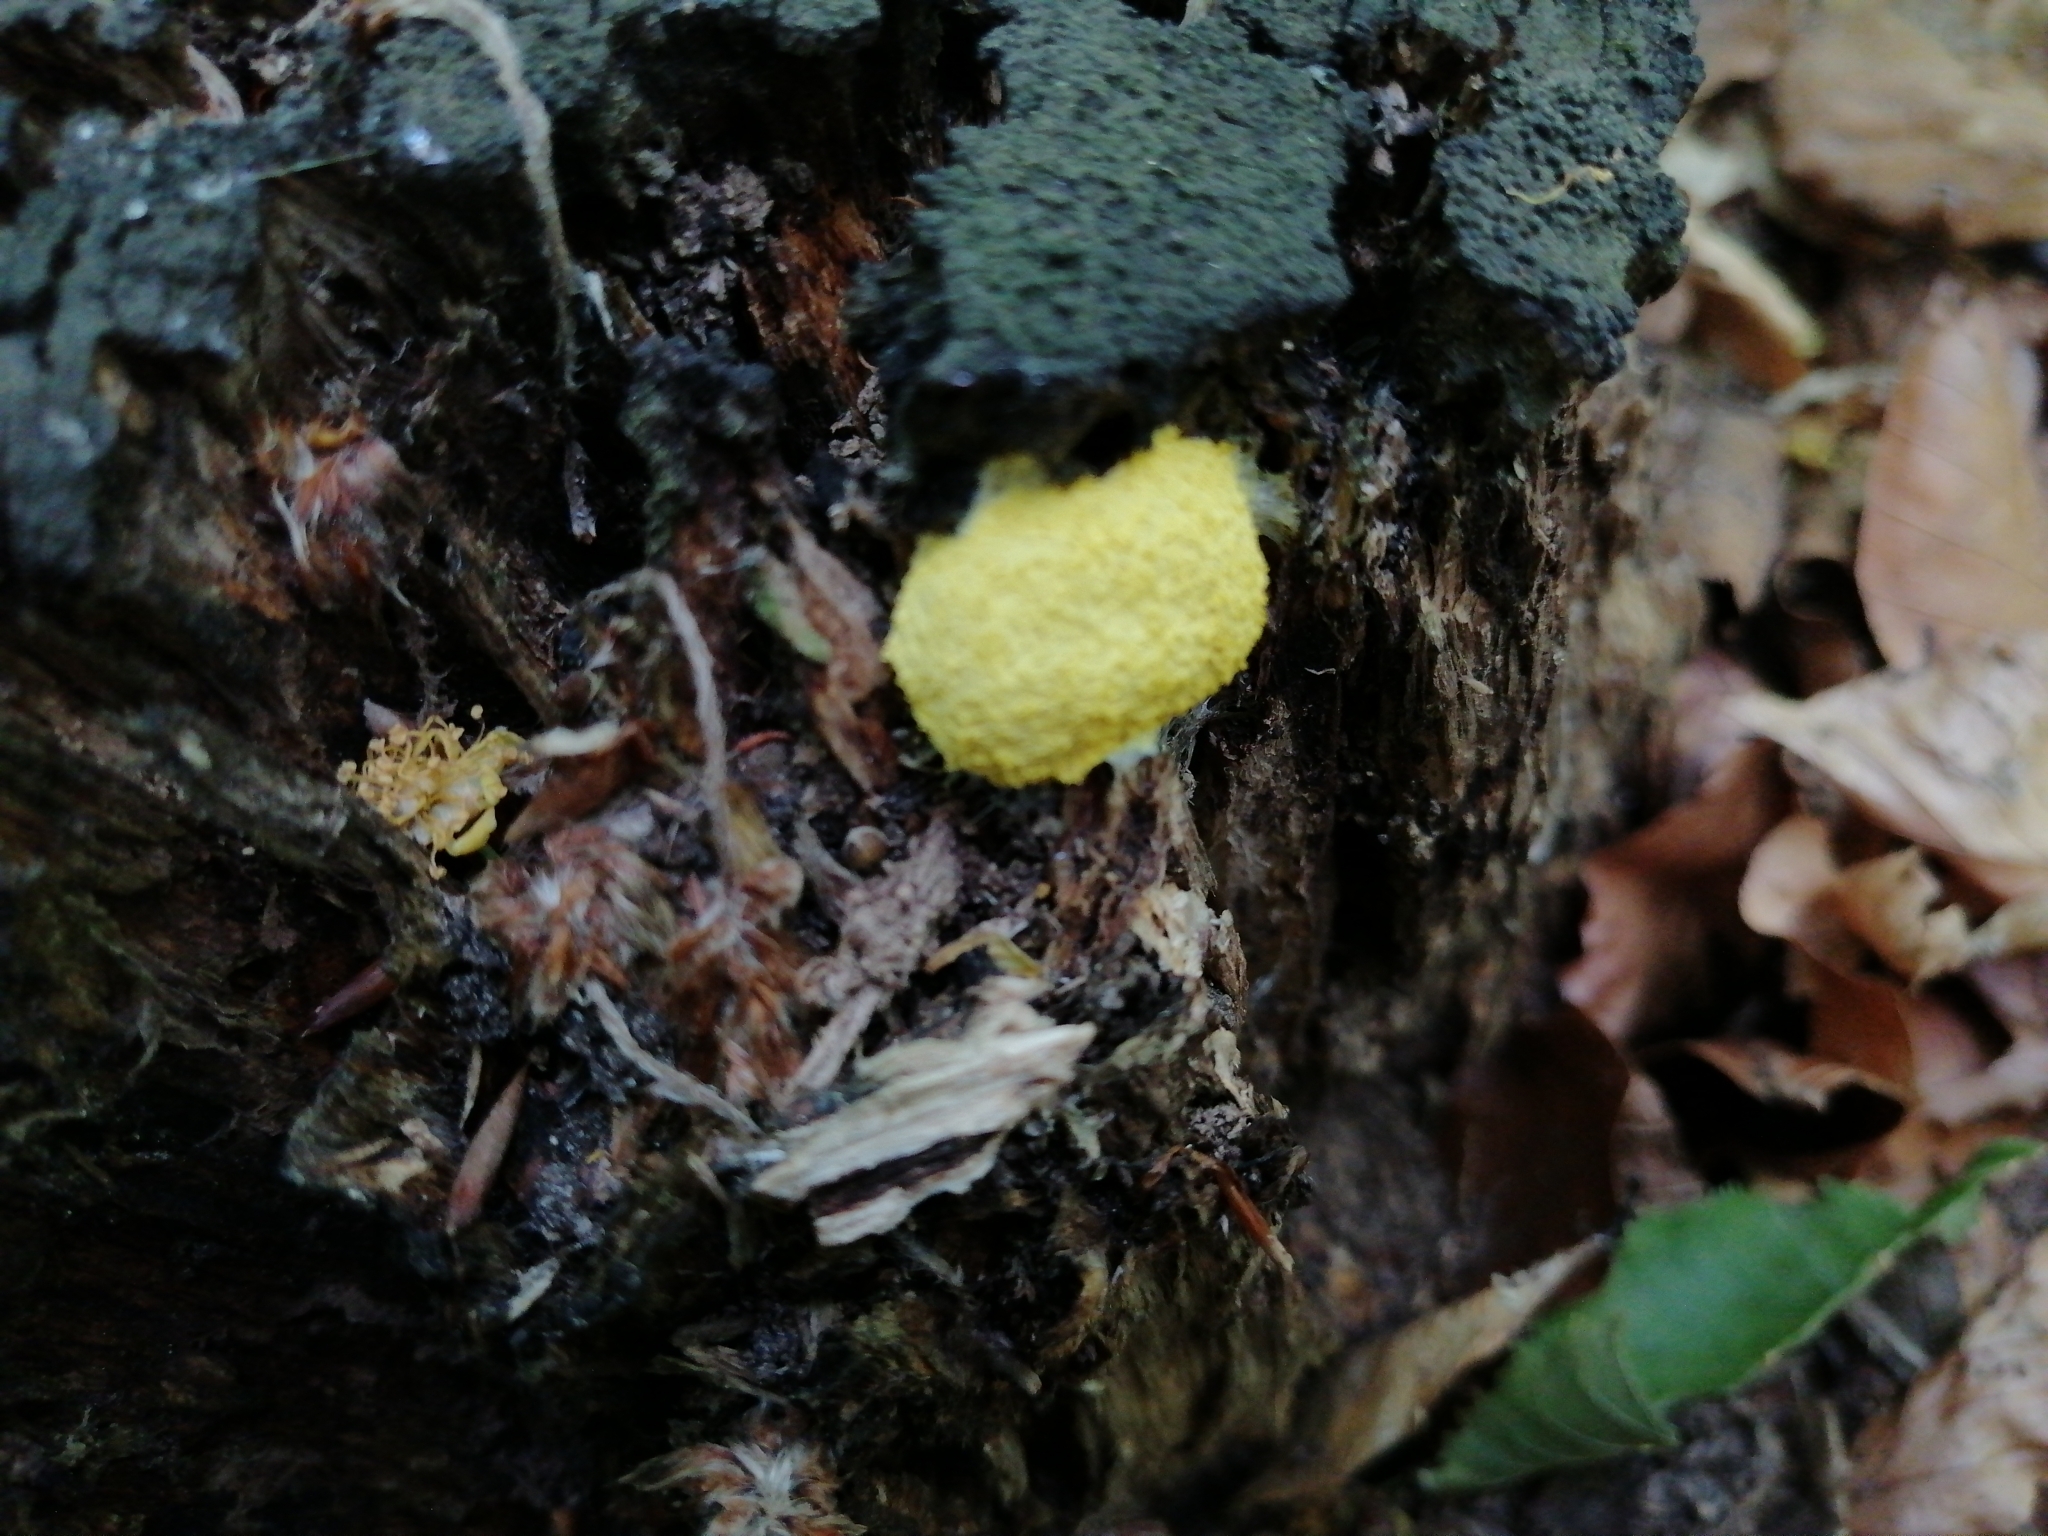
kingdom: Protozoa
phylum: Mycetozoa
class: Myxomycetes
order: Physarales
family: Physaraceae
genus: Fuligo
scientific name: Fuligo septica
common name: Dog vomit slime mold
